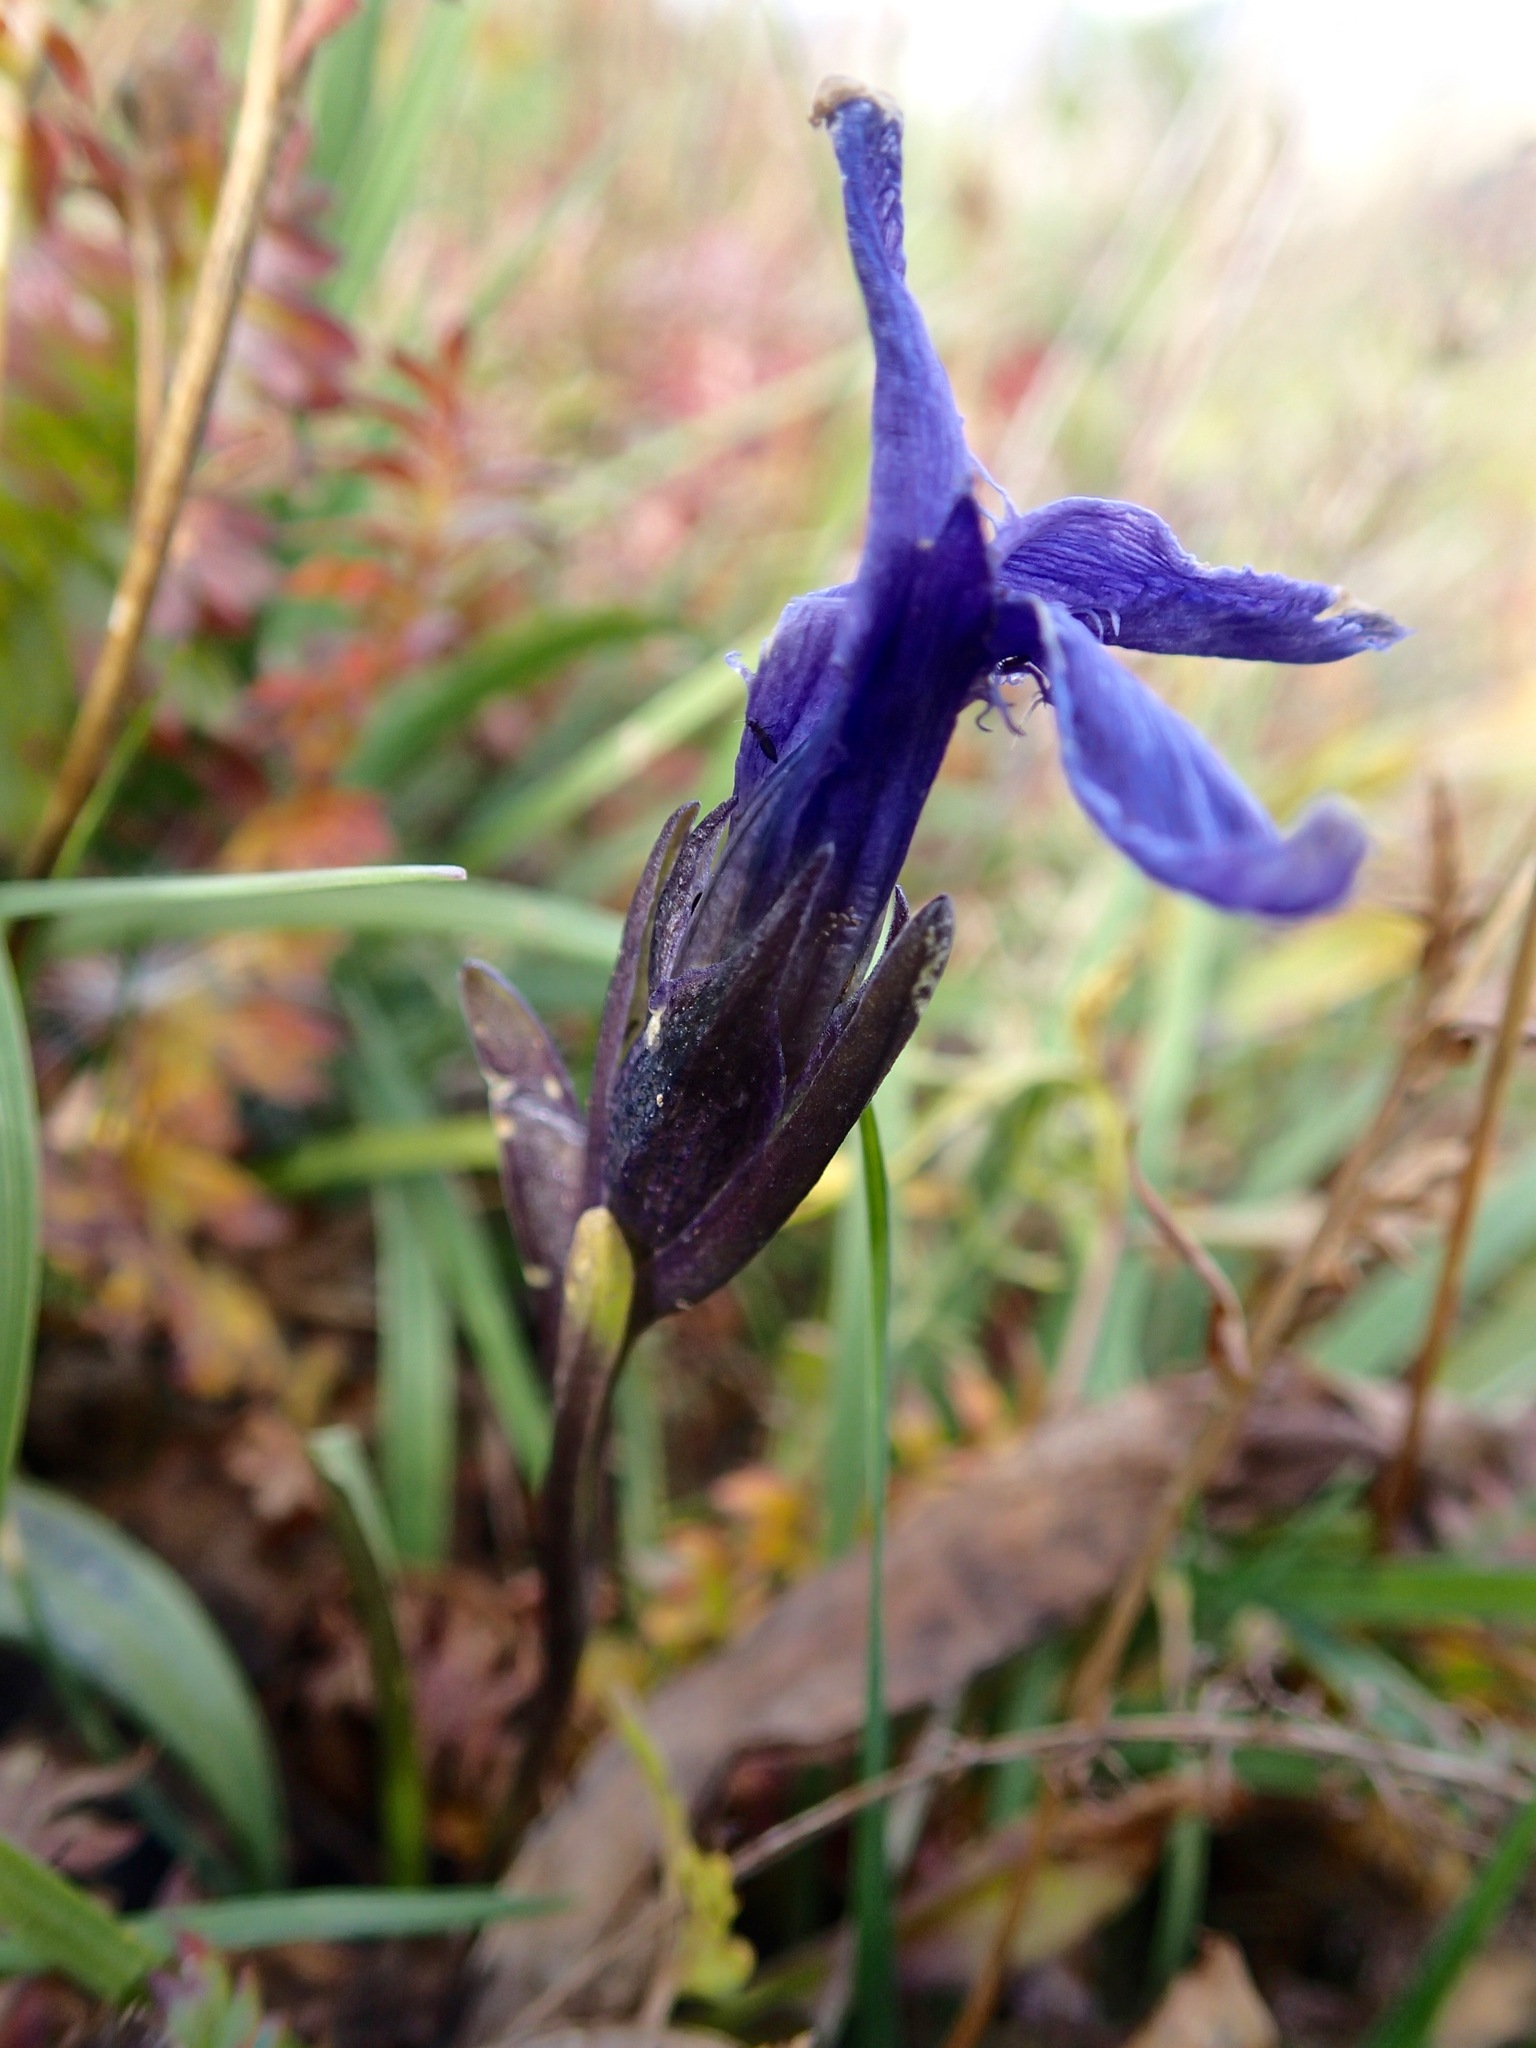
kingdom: Plantae
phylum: Tracheophyta
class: Magnoliopsida
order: Gentianales
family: Gentianaceae
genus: Gentianopsis
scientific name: Gentianopsis barbellata
